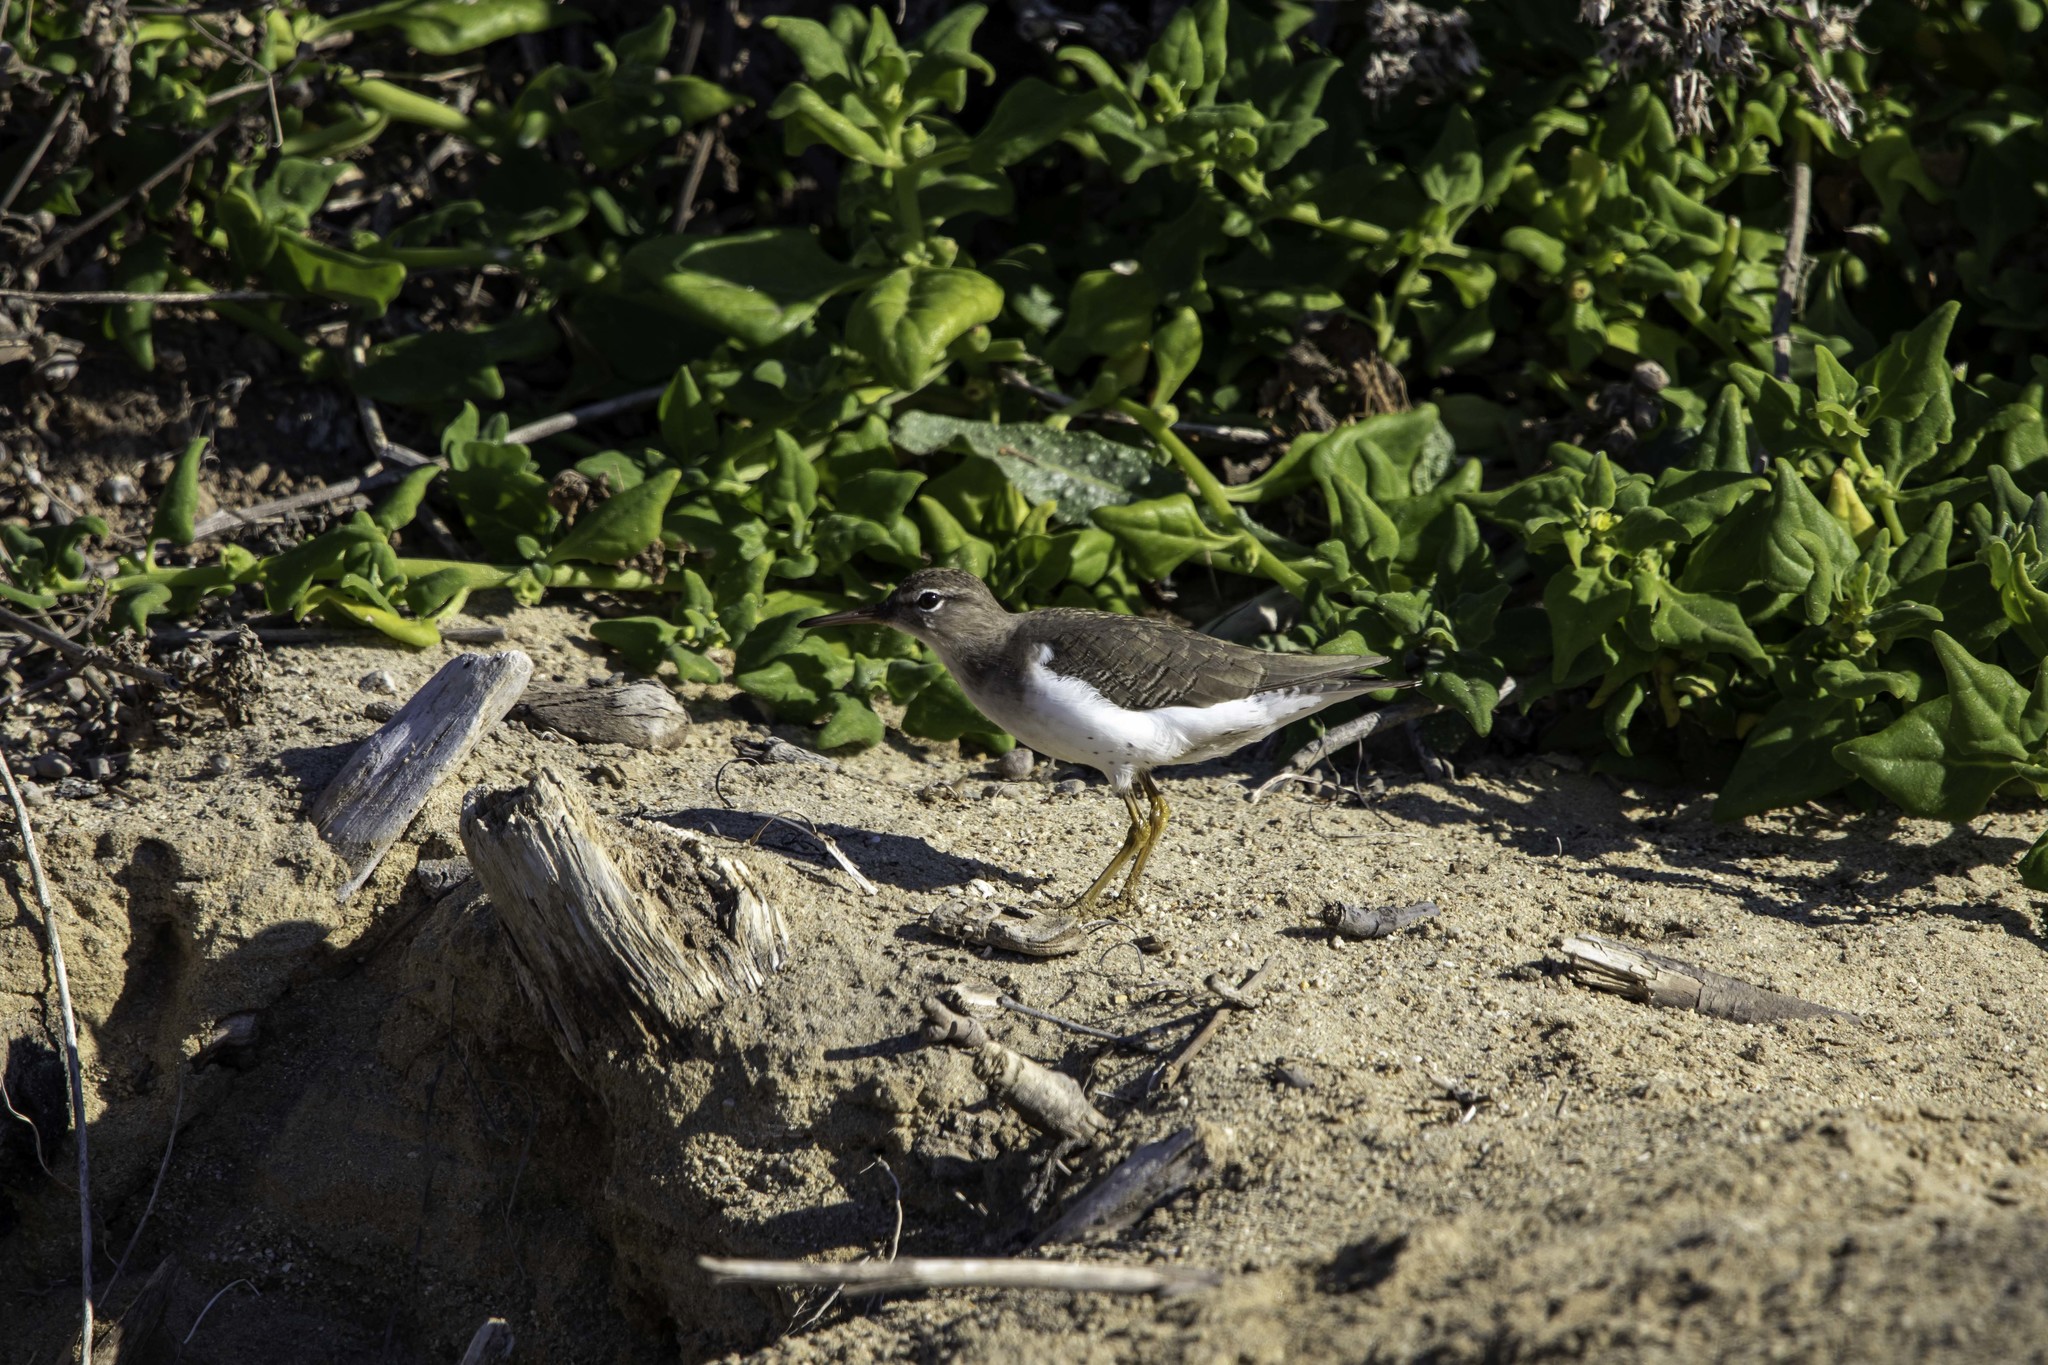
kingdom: Animalia
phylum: Chordata
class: Aves
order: Charadriiformes
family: Scolopacidae
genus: Actitis
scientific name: Actitis macularius
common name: Spotted sandpiper
